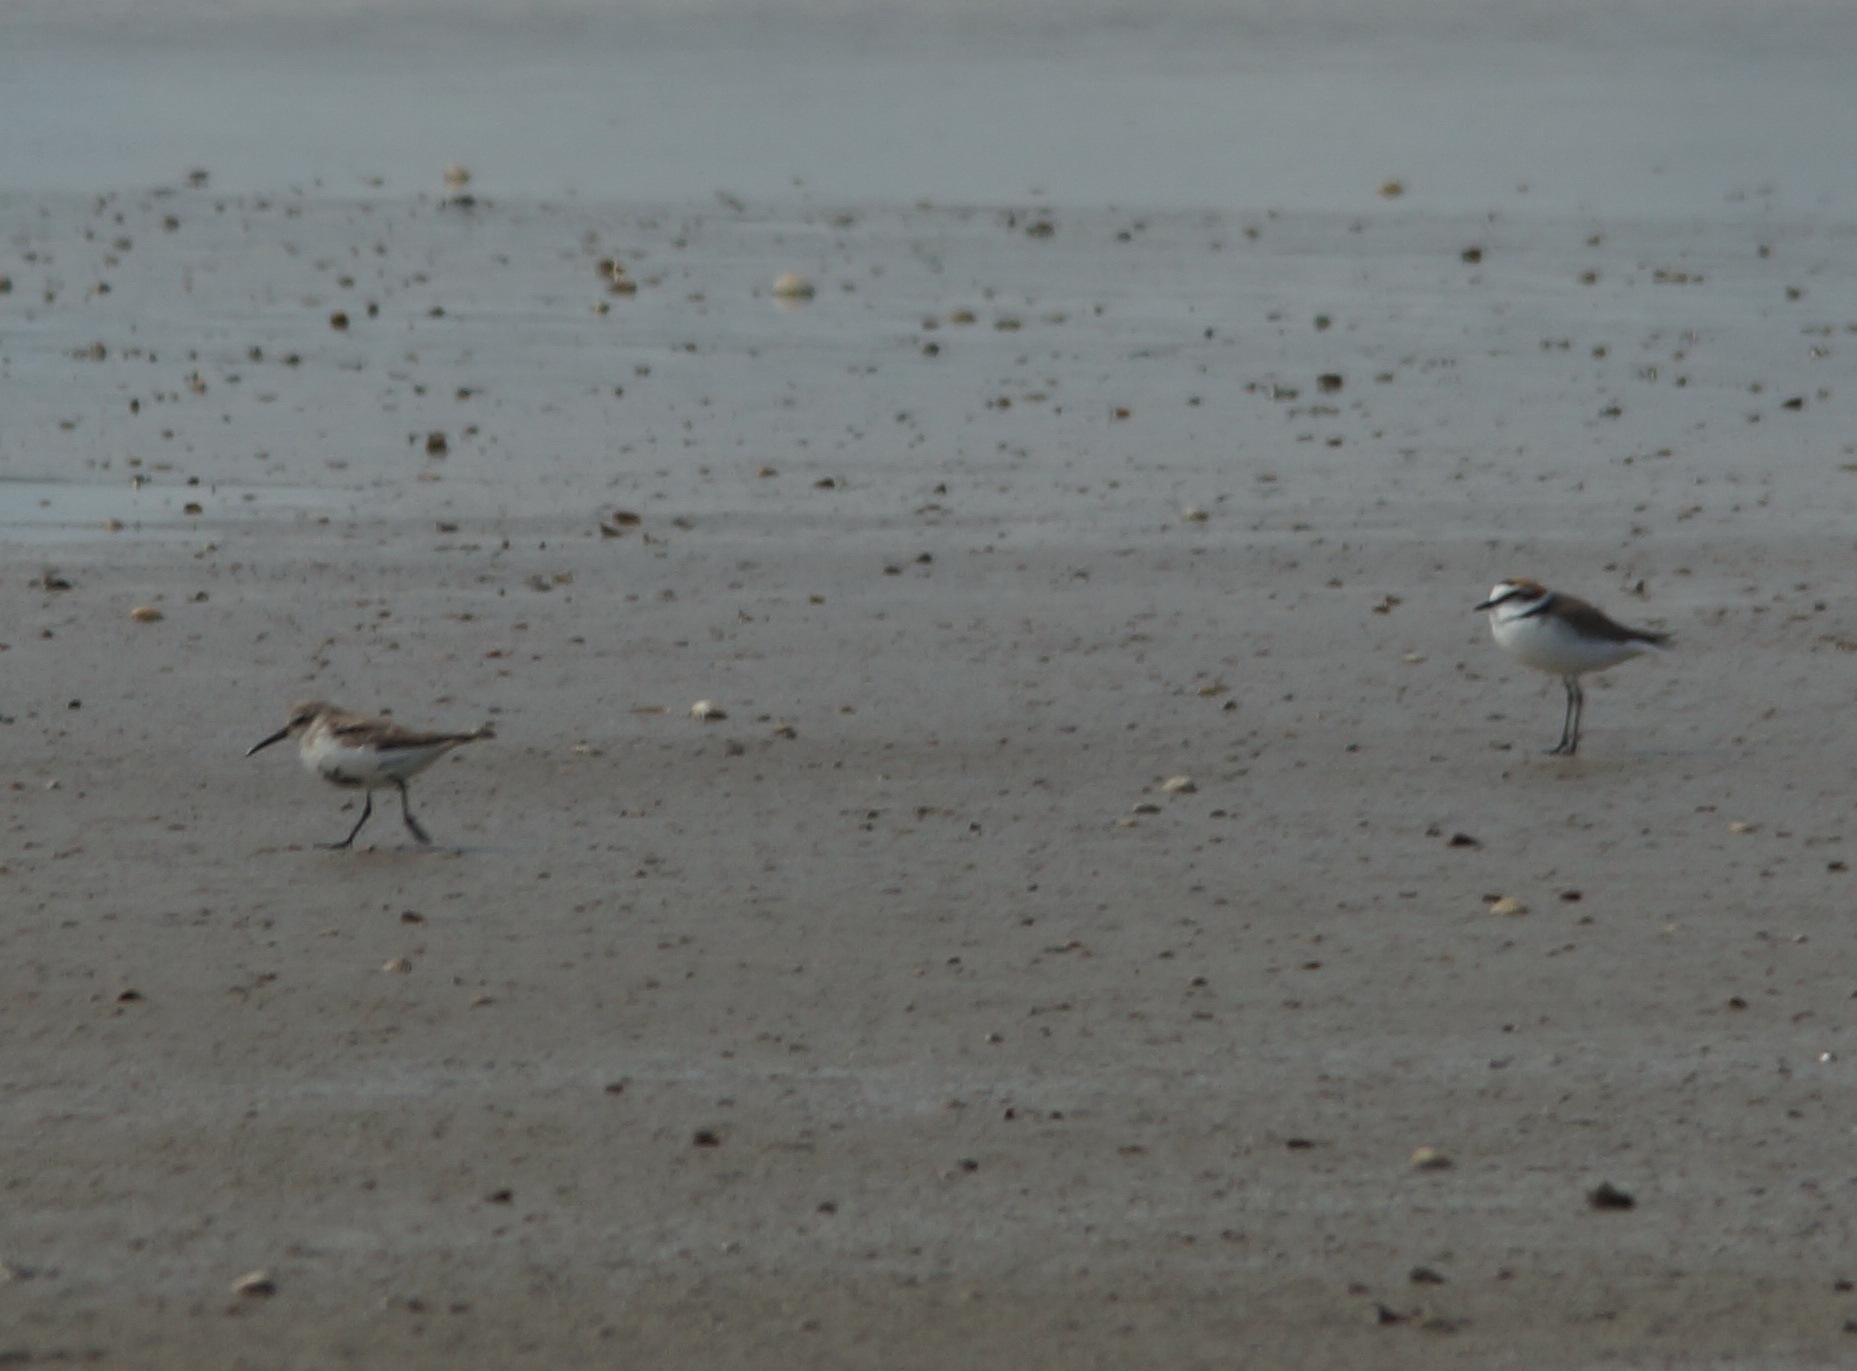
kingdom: Animalia
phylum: Chordata
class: Aves
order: Charadriiformes
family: Scolopacidae
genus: Calidris
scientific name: Calidris alpina
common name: Dunlin
